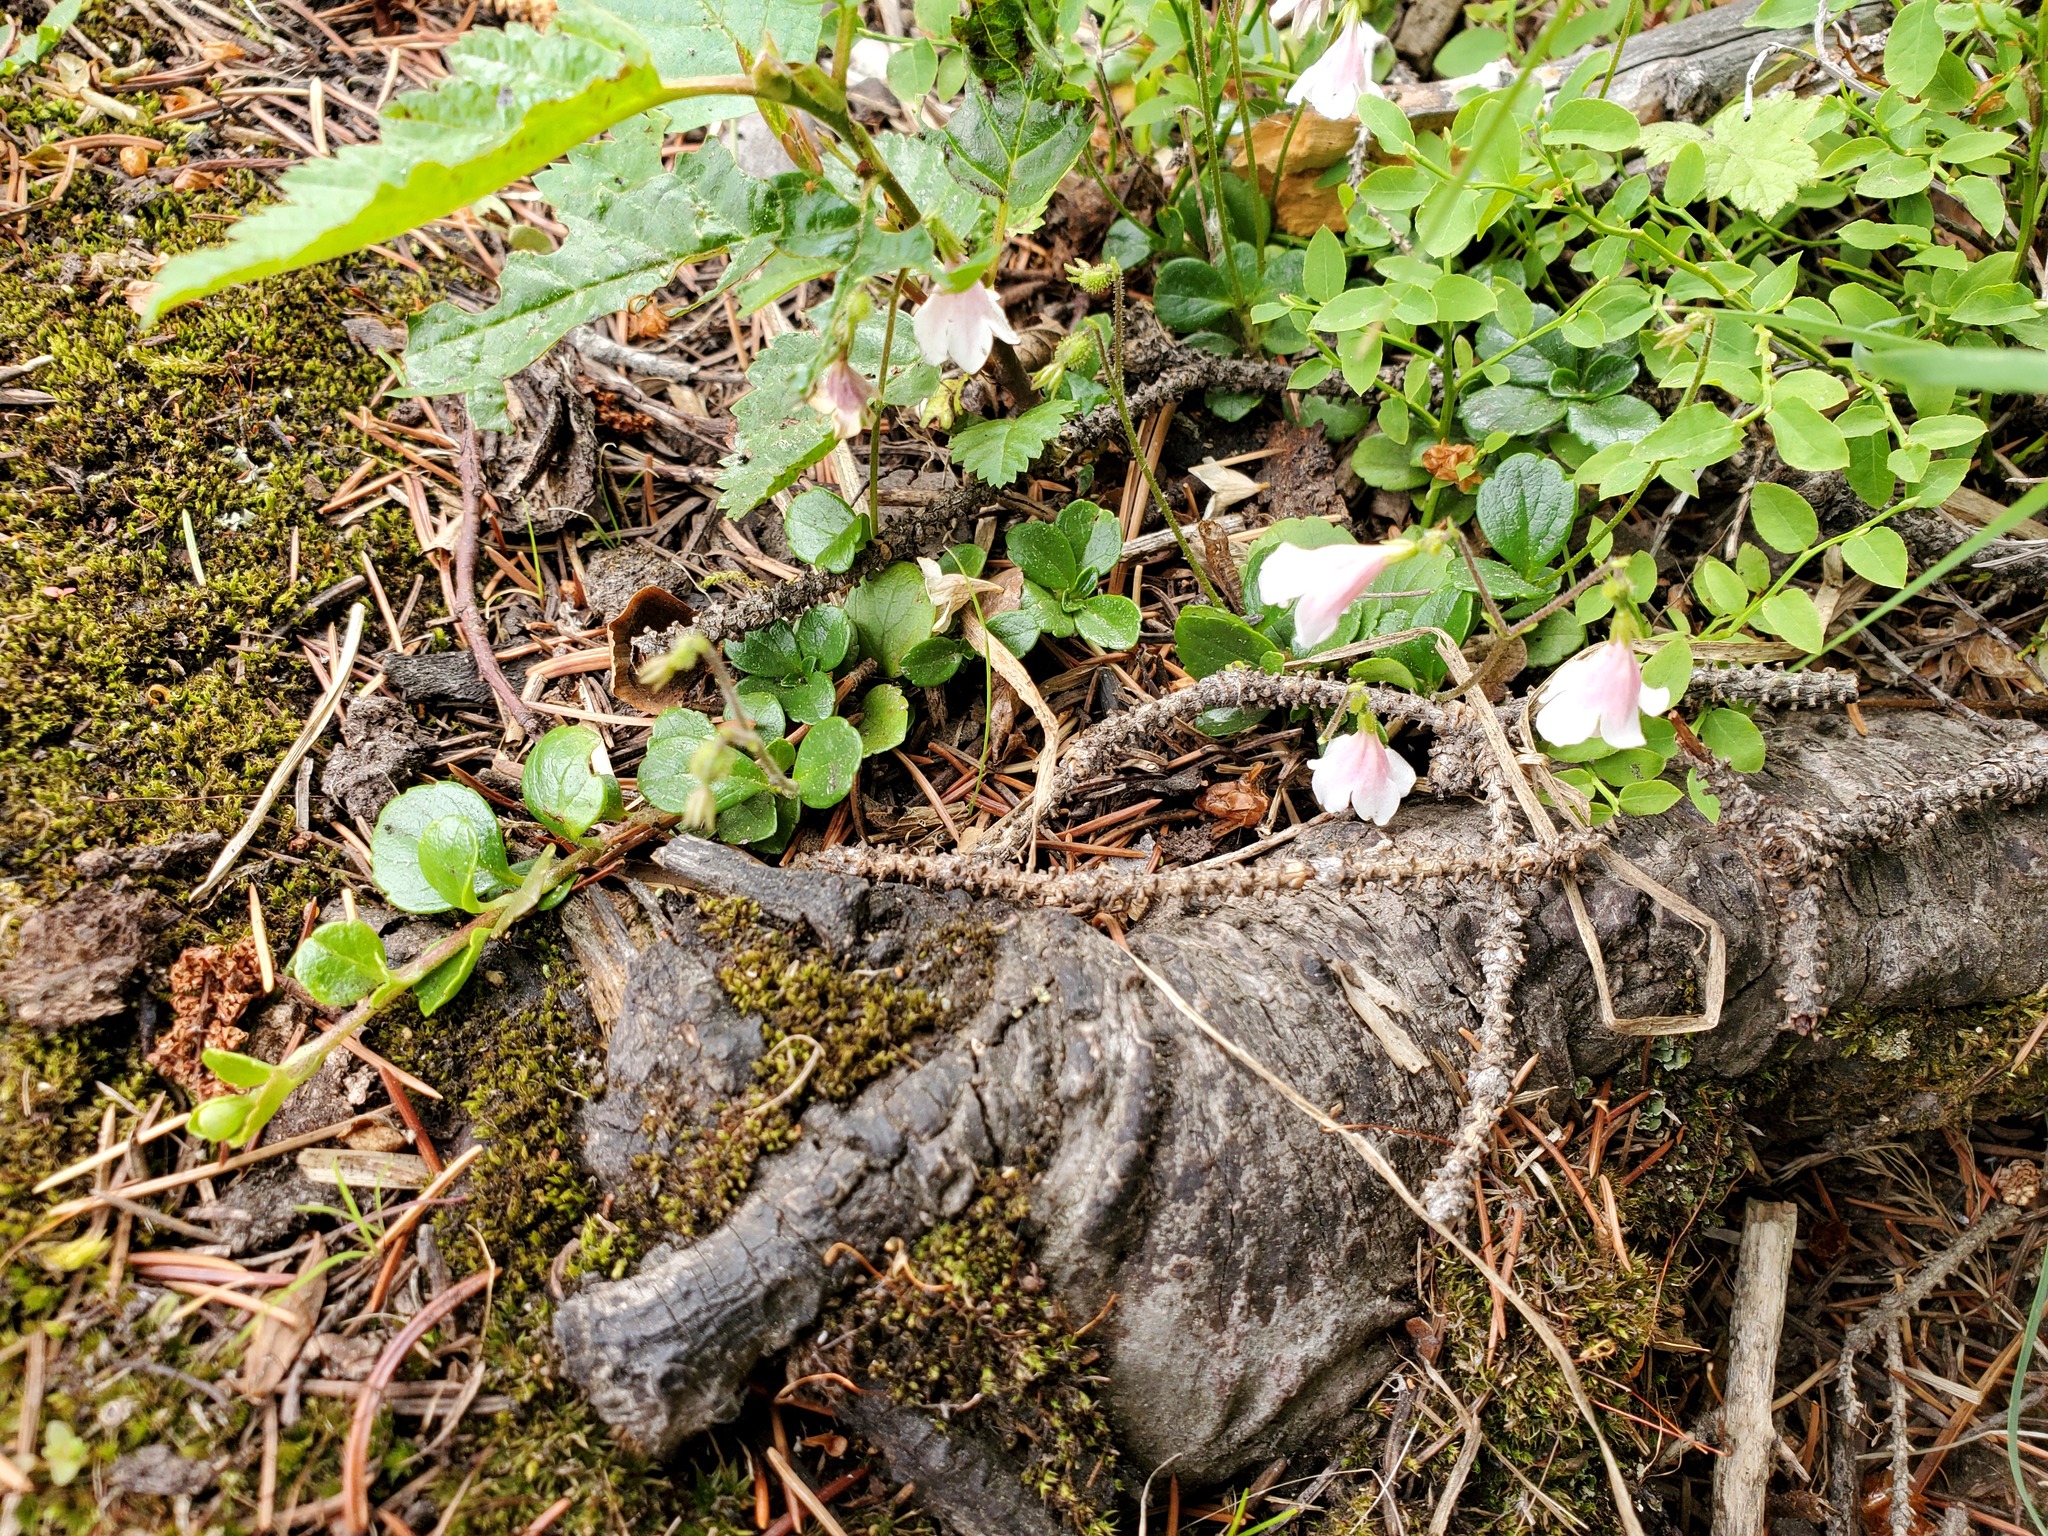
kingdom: Plantae
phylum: Tracheophyta
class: Magnoliopsida
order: Dipsacales
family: Caprifoliaceae
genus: Linnaea
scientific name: Linnaea borealis
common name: Twinflower
